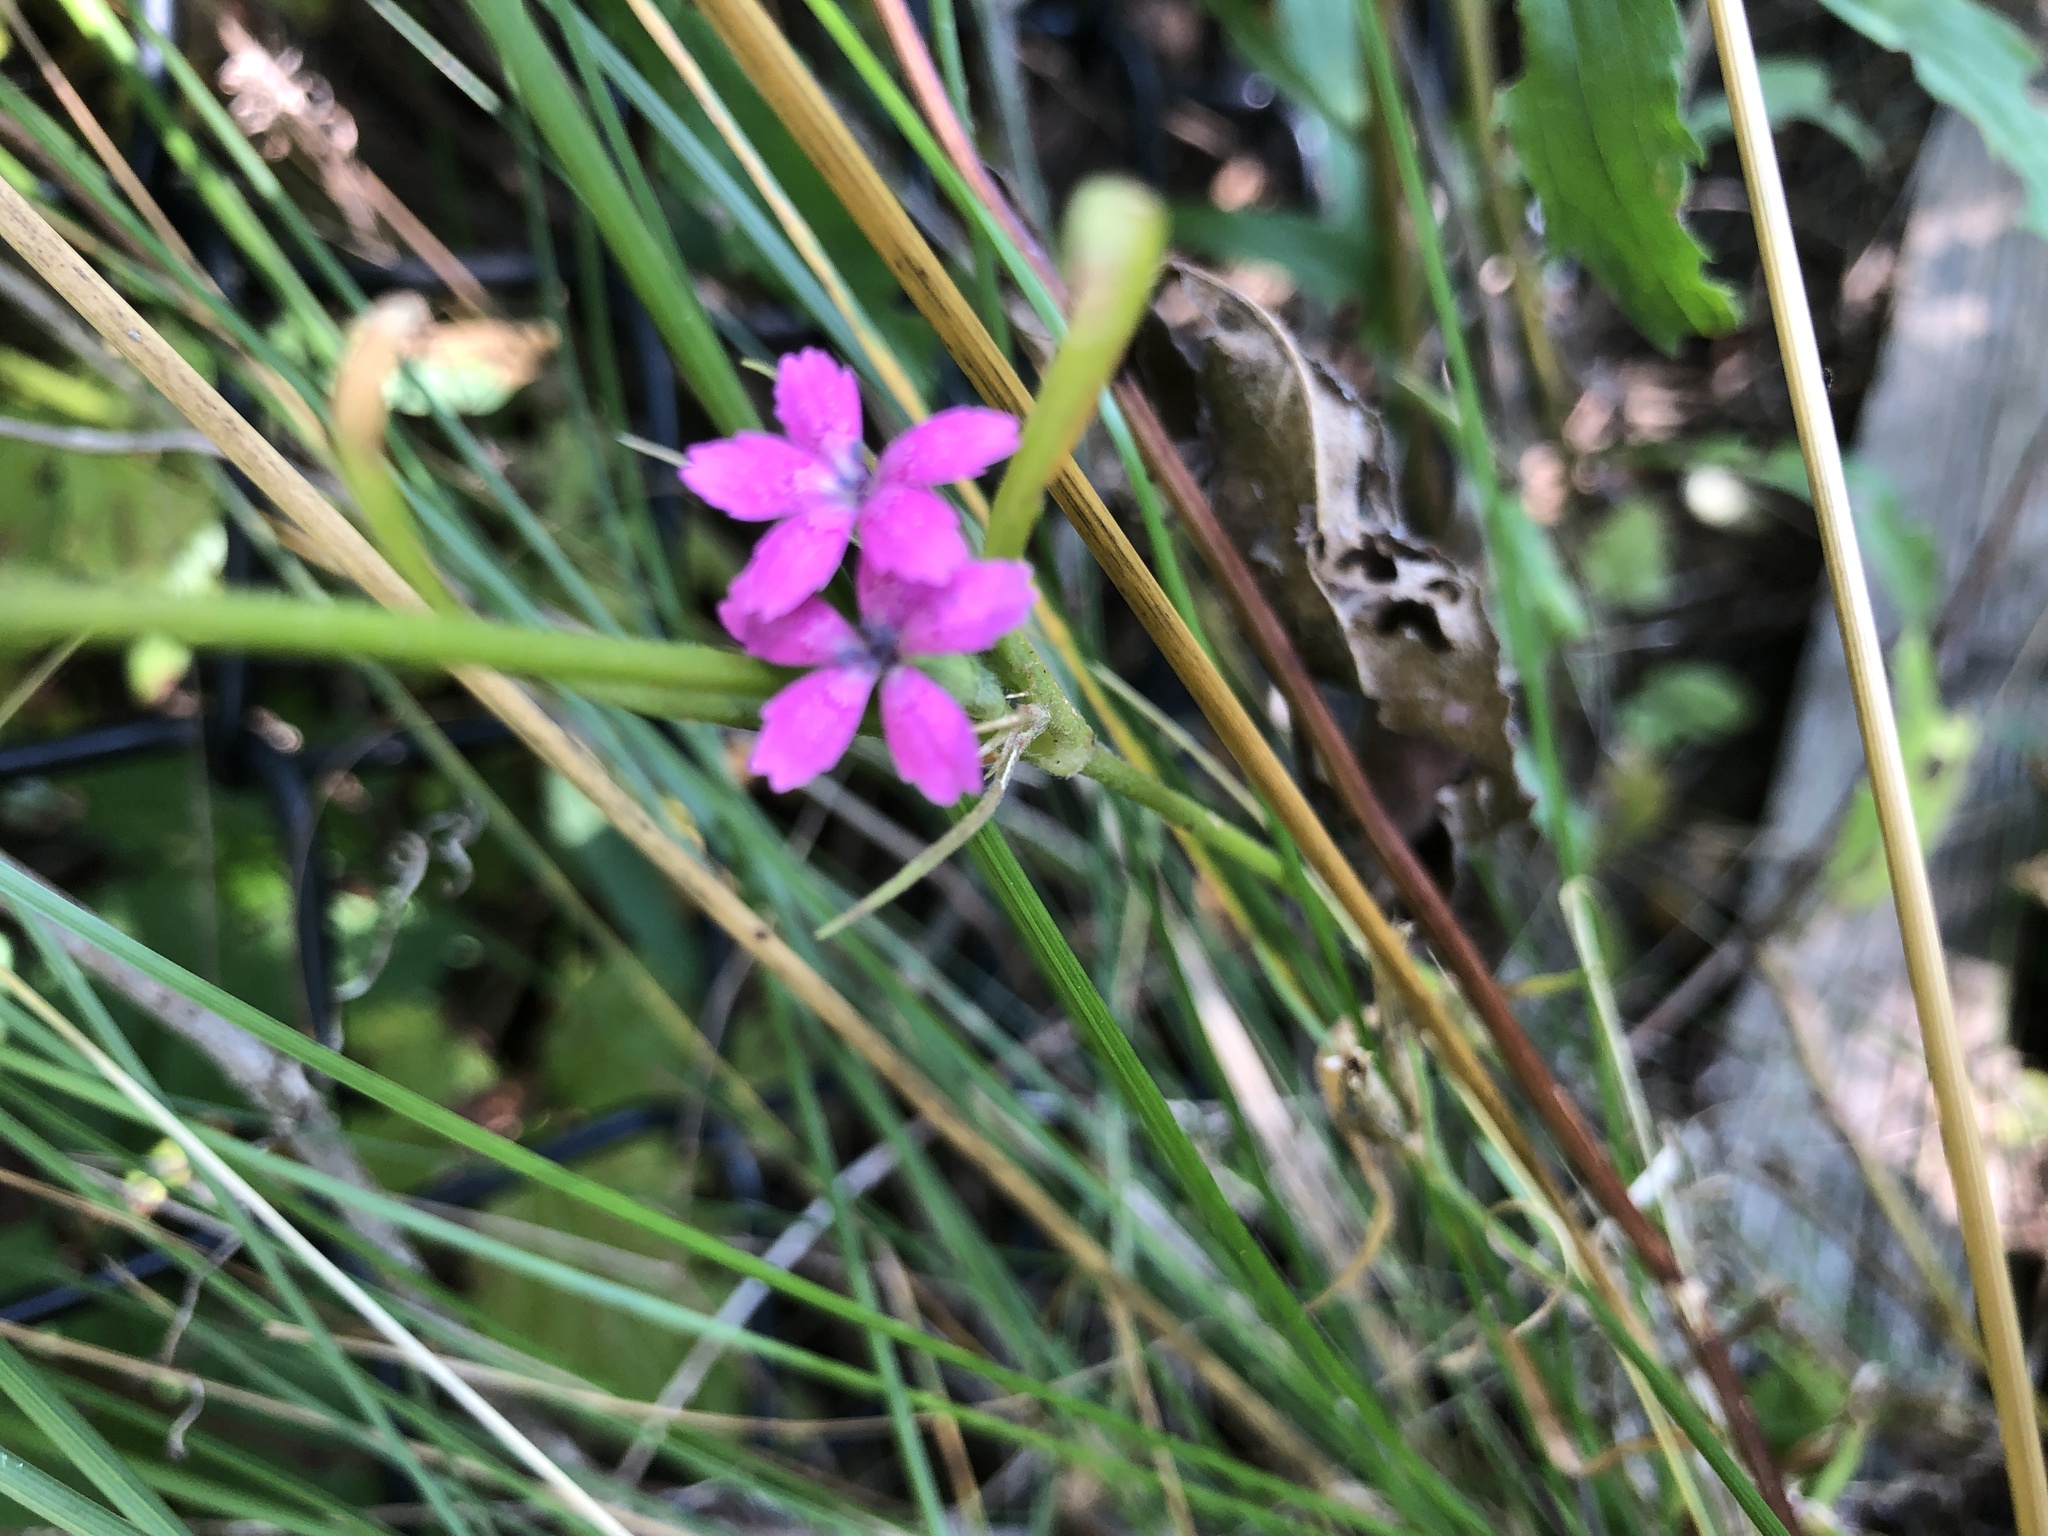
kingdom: Plantae
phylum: Tracheophyta
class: Magnoliopsida
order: Caryophyllales
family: Caryophyllaceae
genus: Dianthus
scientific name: Dianthus armeria
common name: Deptford pink
